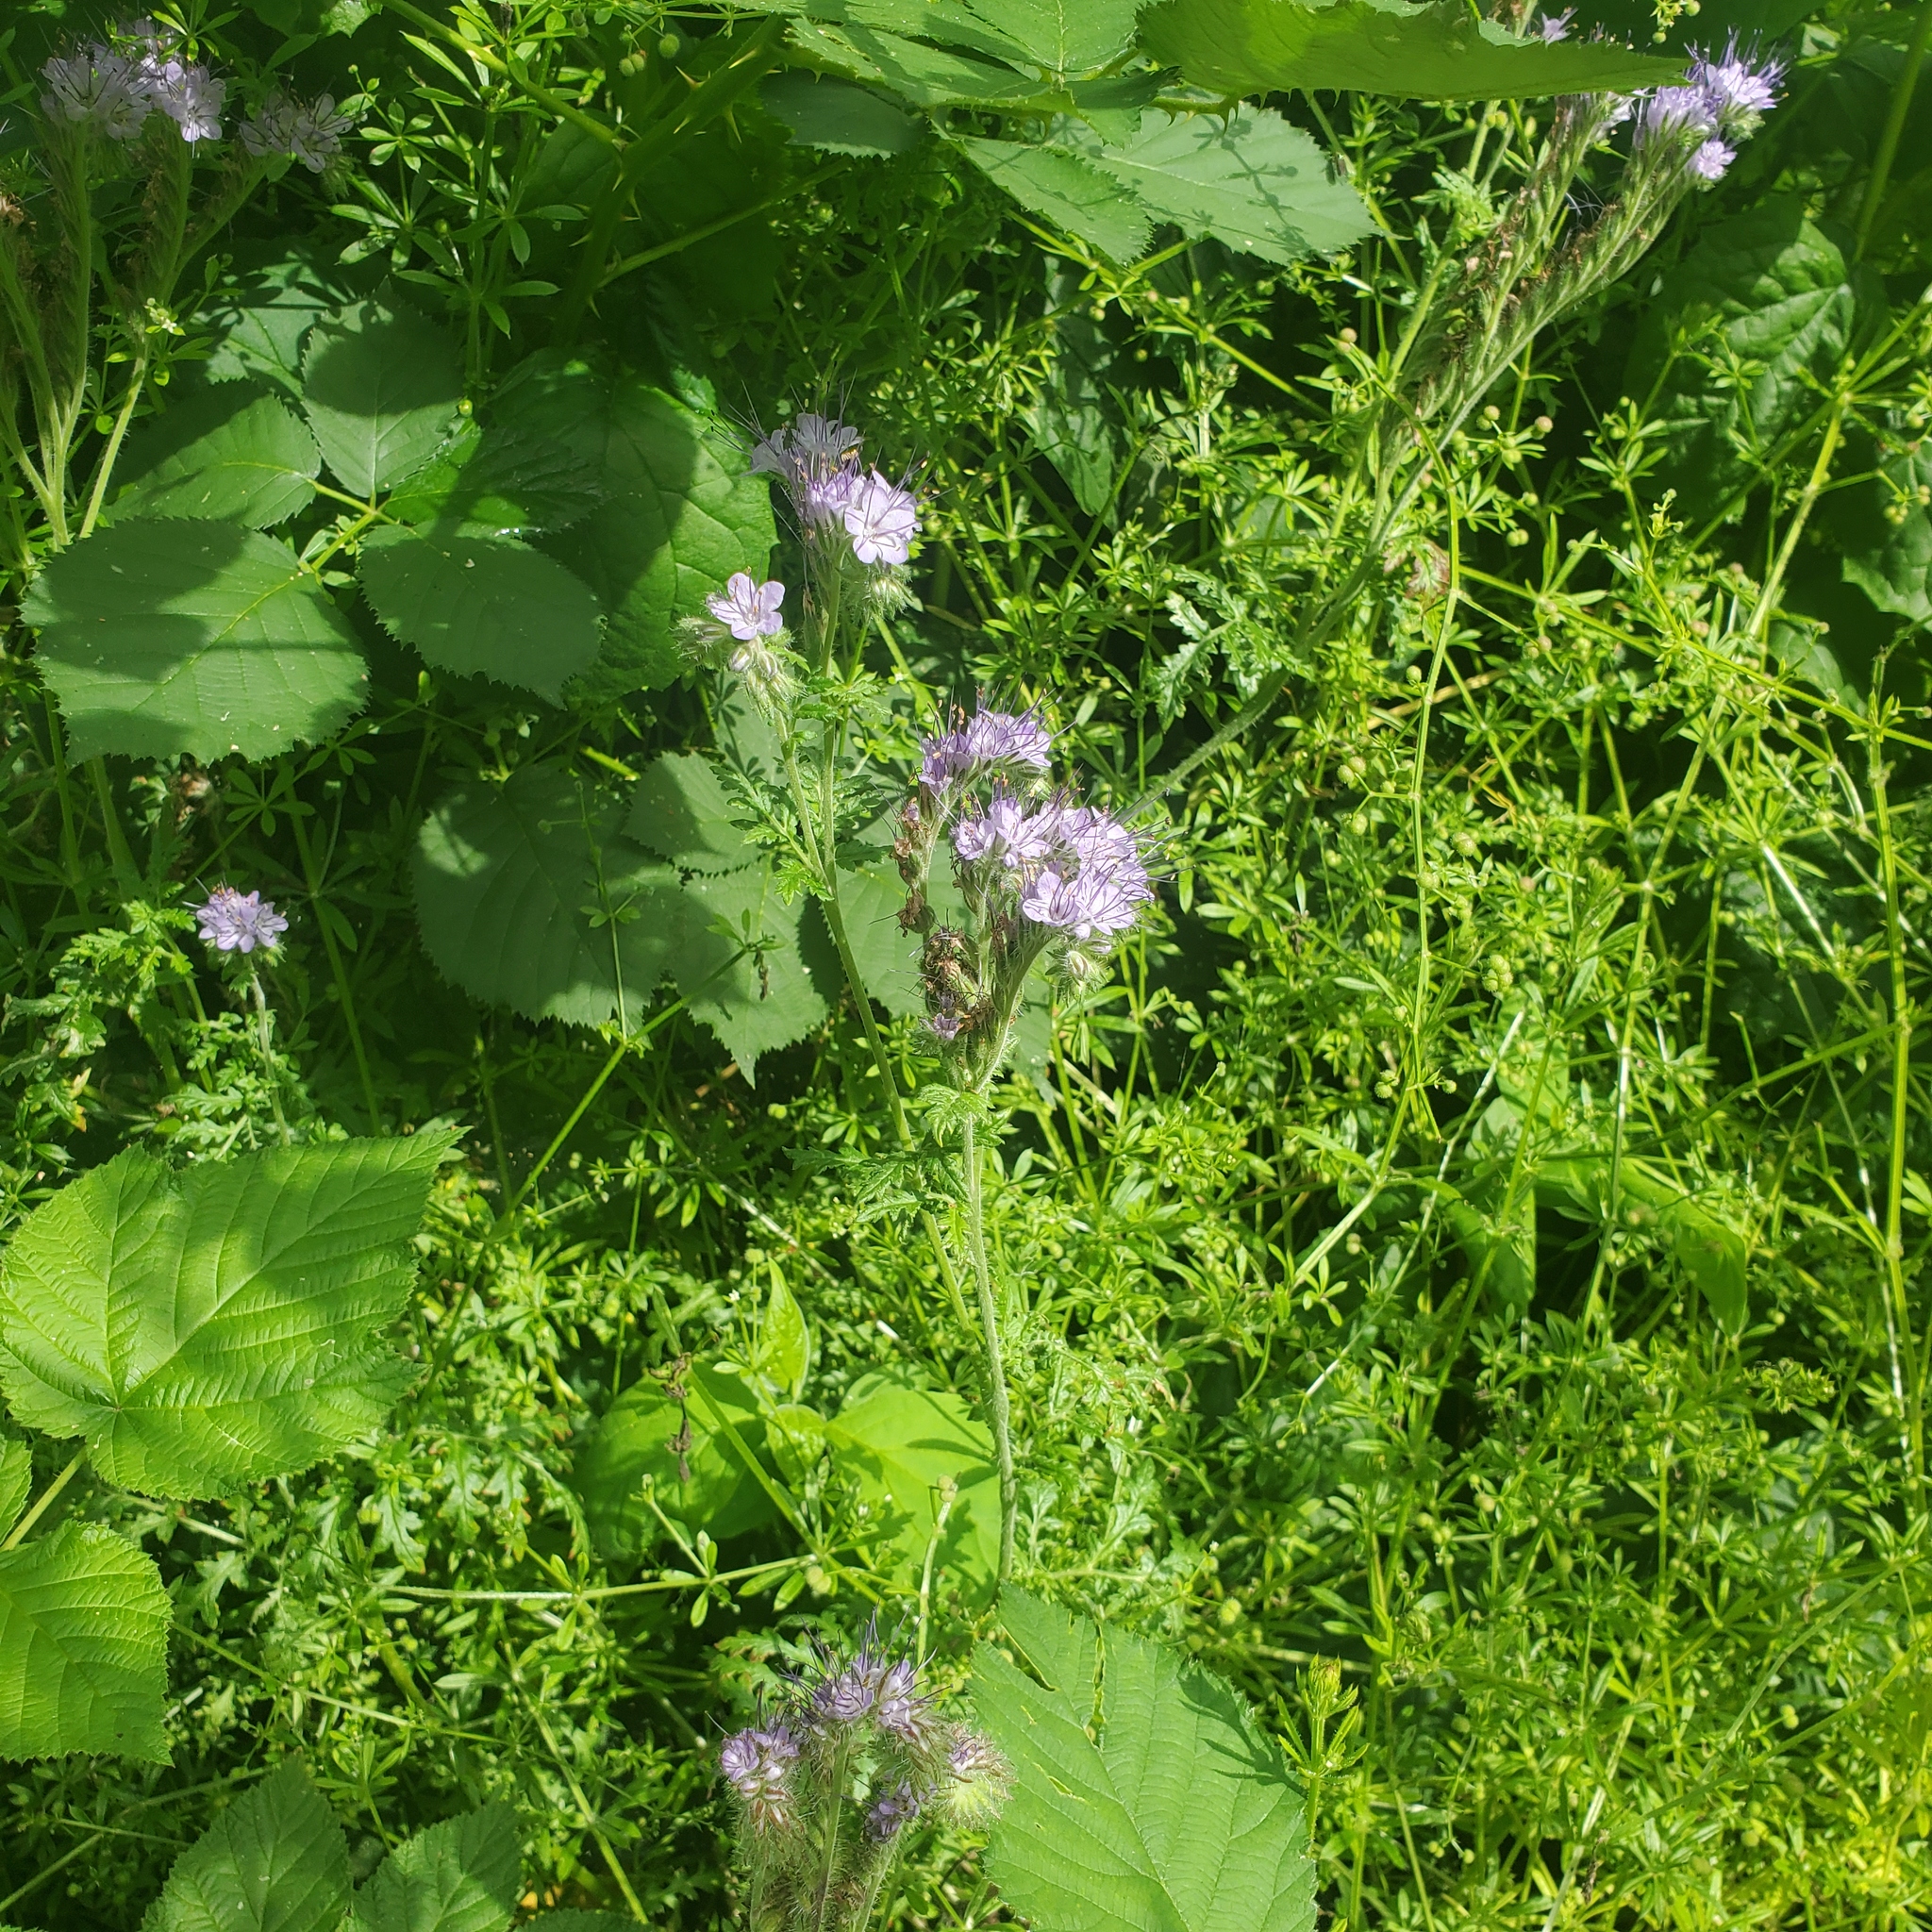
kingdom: Plantae
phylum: Tracheophyta
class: Magnoliopsida
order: Boraginales
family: Hydrophyllaceae
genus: Phacelia
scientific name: Phacelia tanacetifolia
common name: Phacelia
